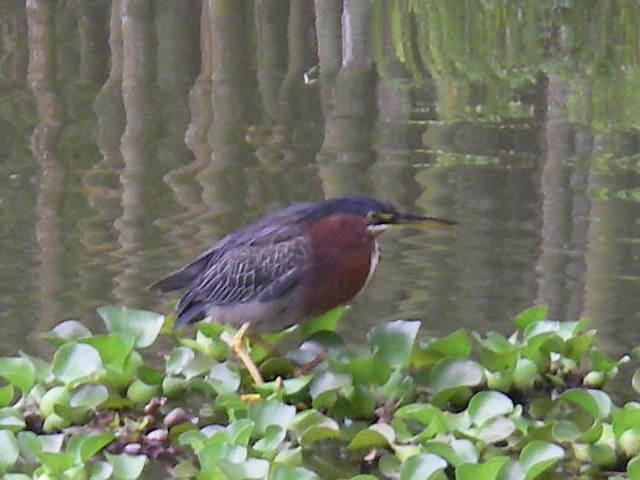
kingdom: Animalia
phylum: Chordata
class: Aves
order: Pelecaniformes
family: Ardeidae
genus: Butorides
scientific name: Butorides virescens
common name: Green heron
